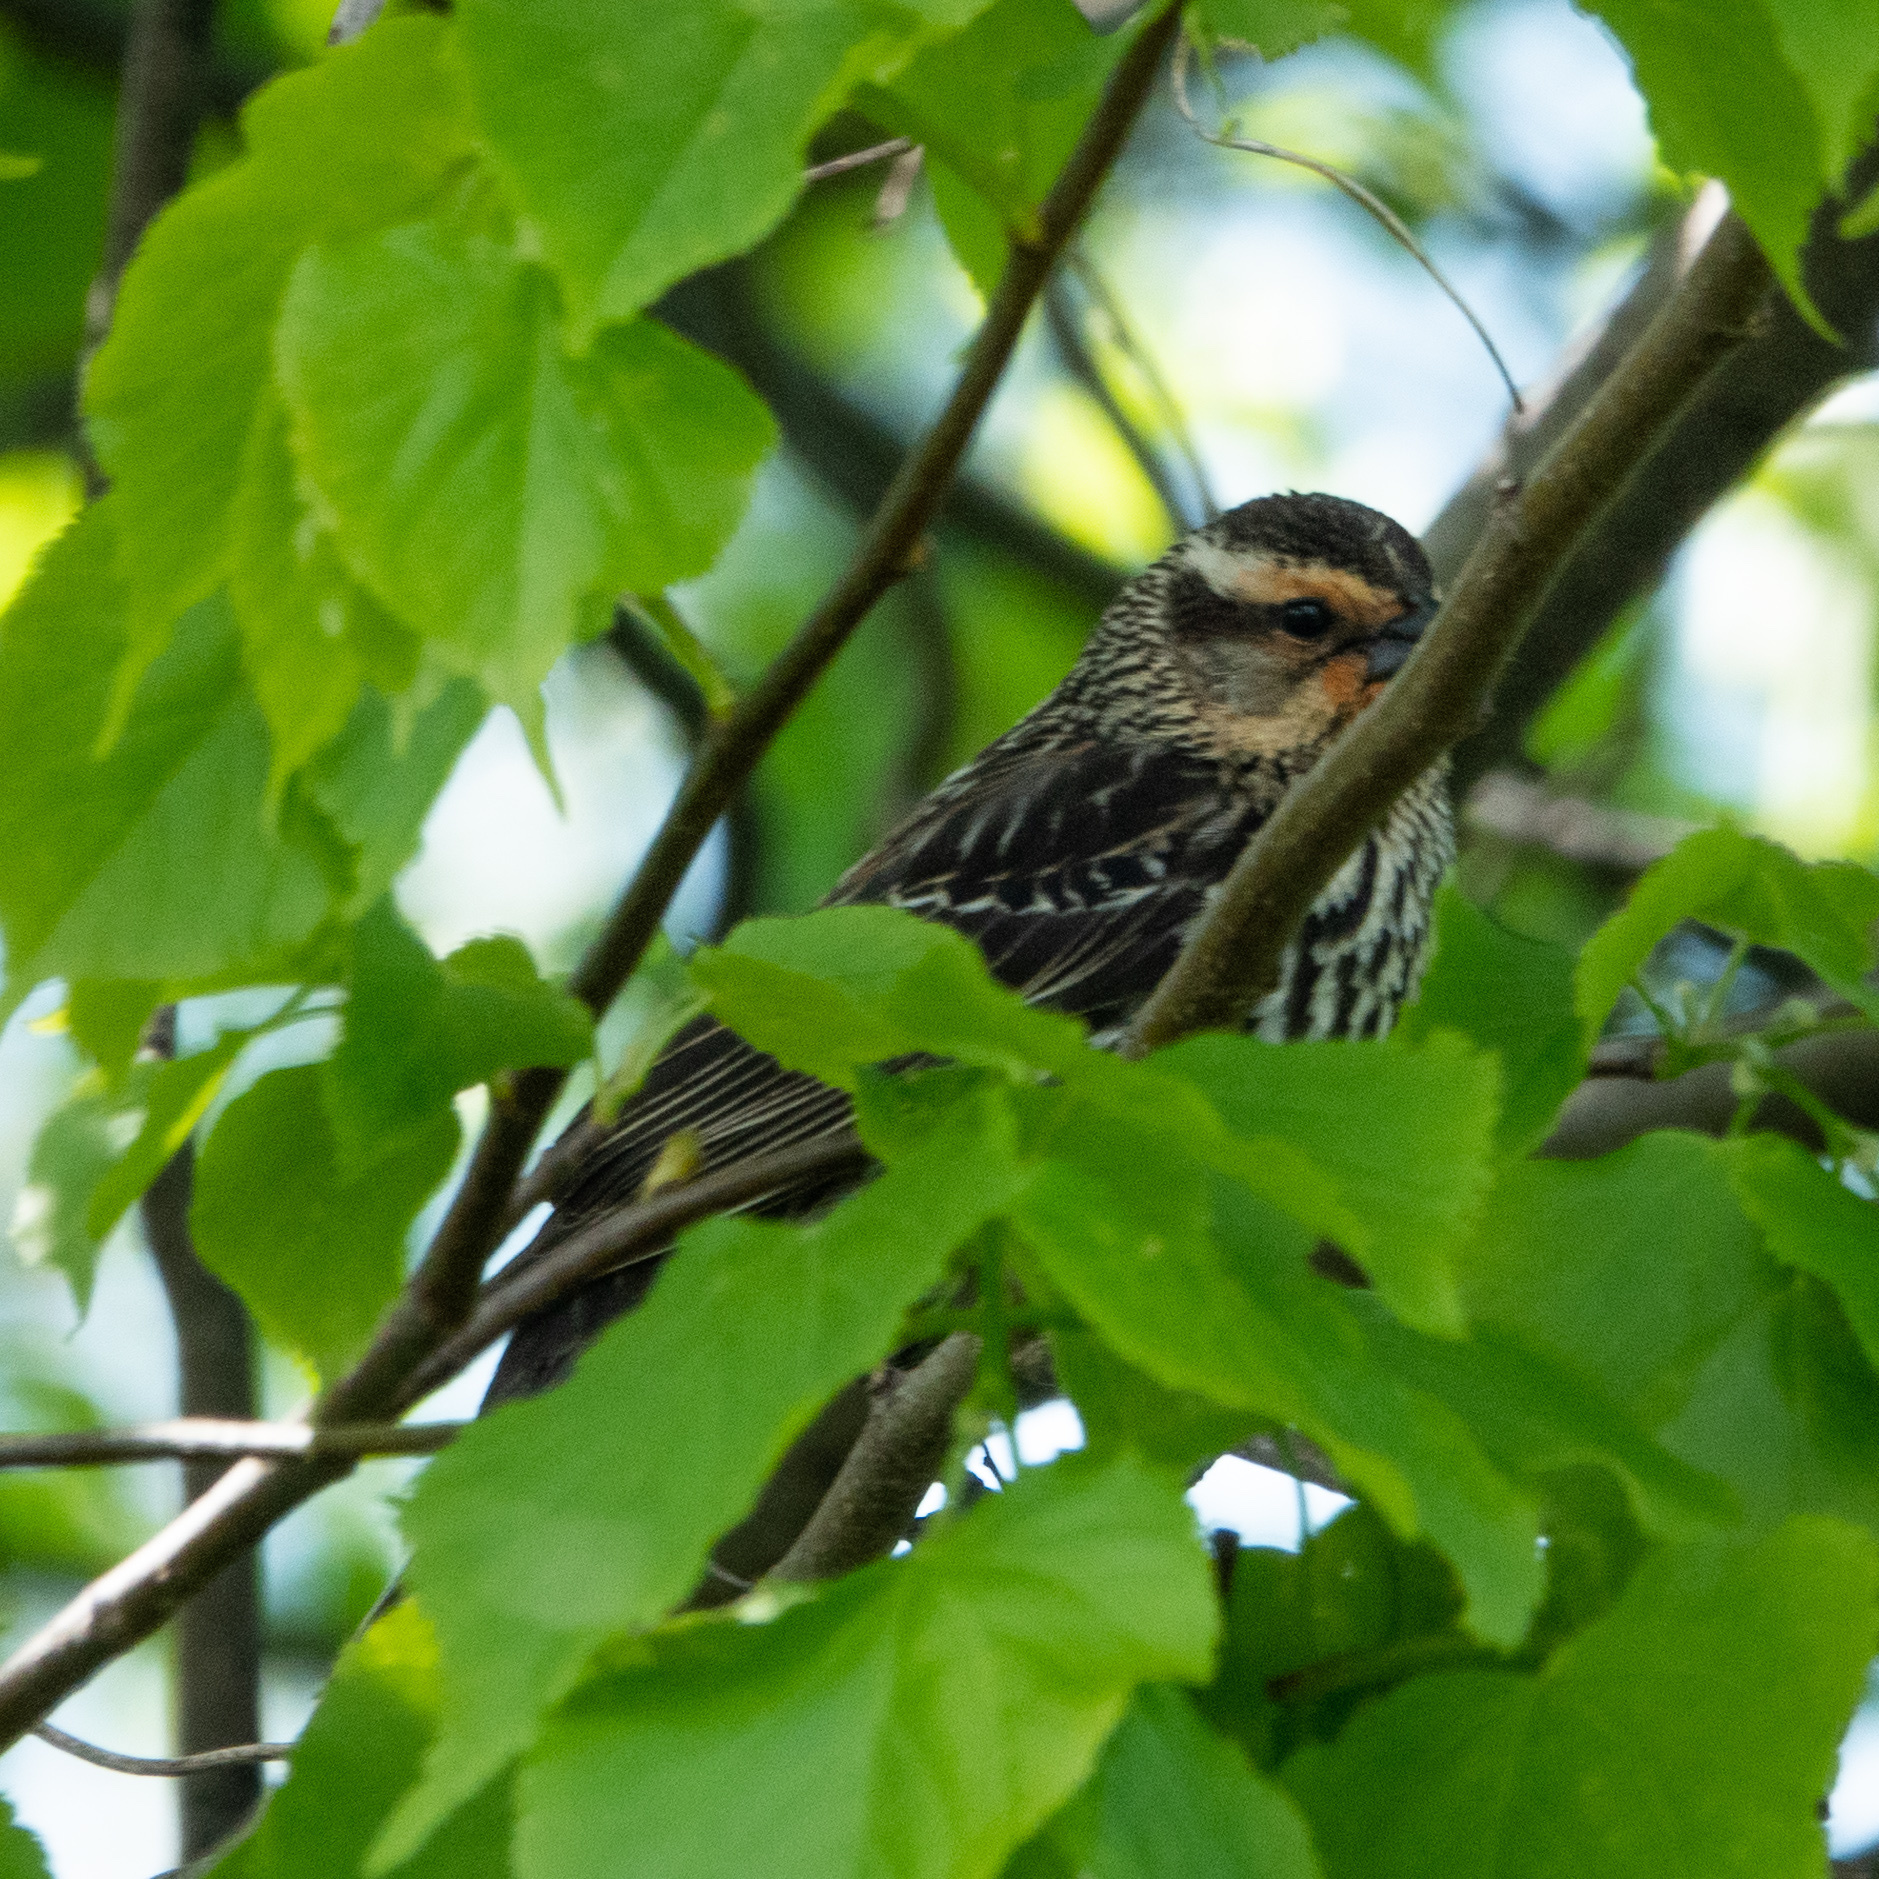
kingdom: Animalia
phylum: Chordata
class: Aves
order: Passeriformes
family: Icteridae
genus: Agelaius
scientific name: Agelaius phoeniceus
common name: Red-winged blackbird
